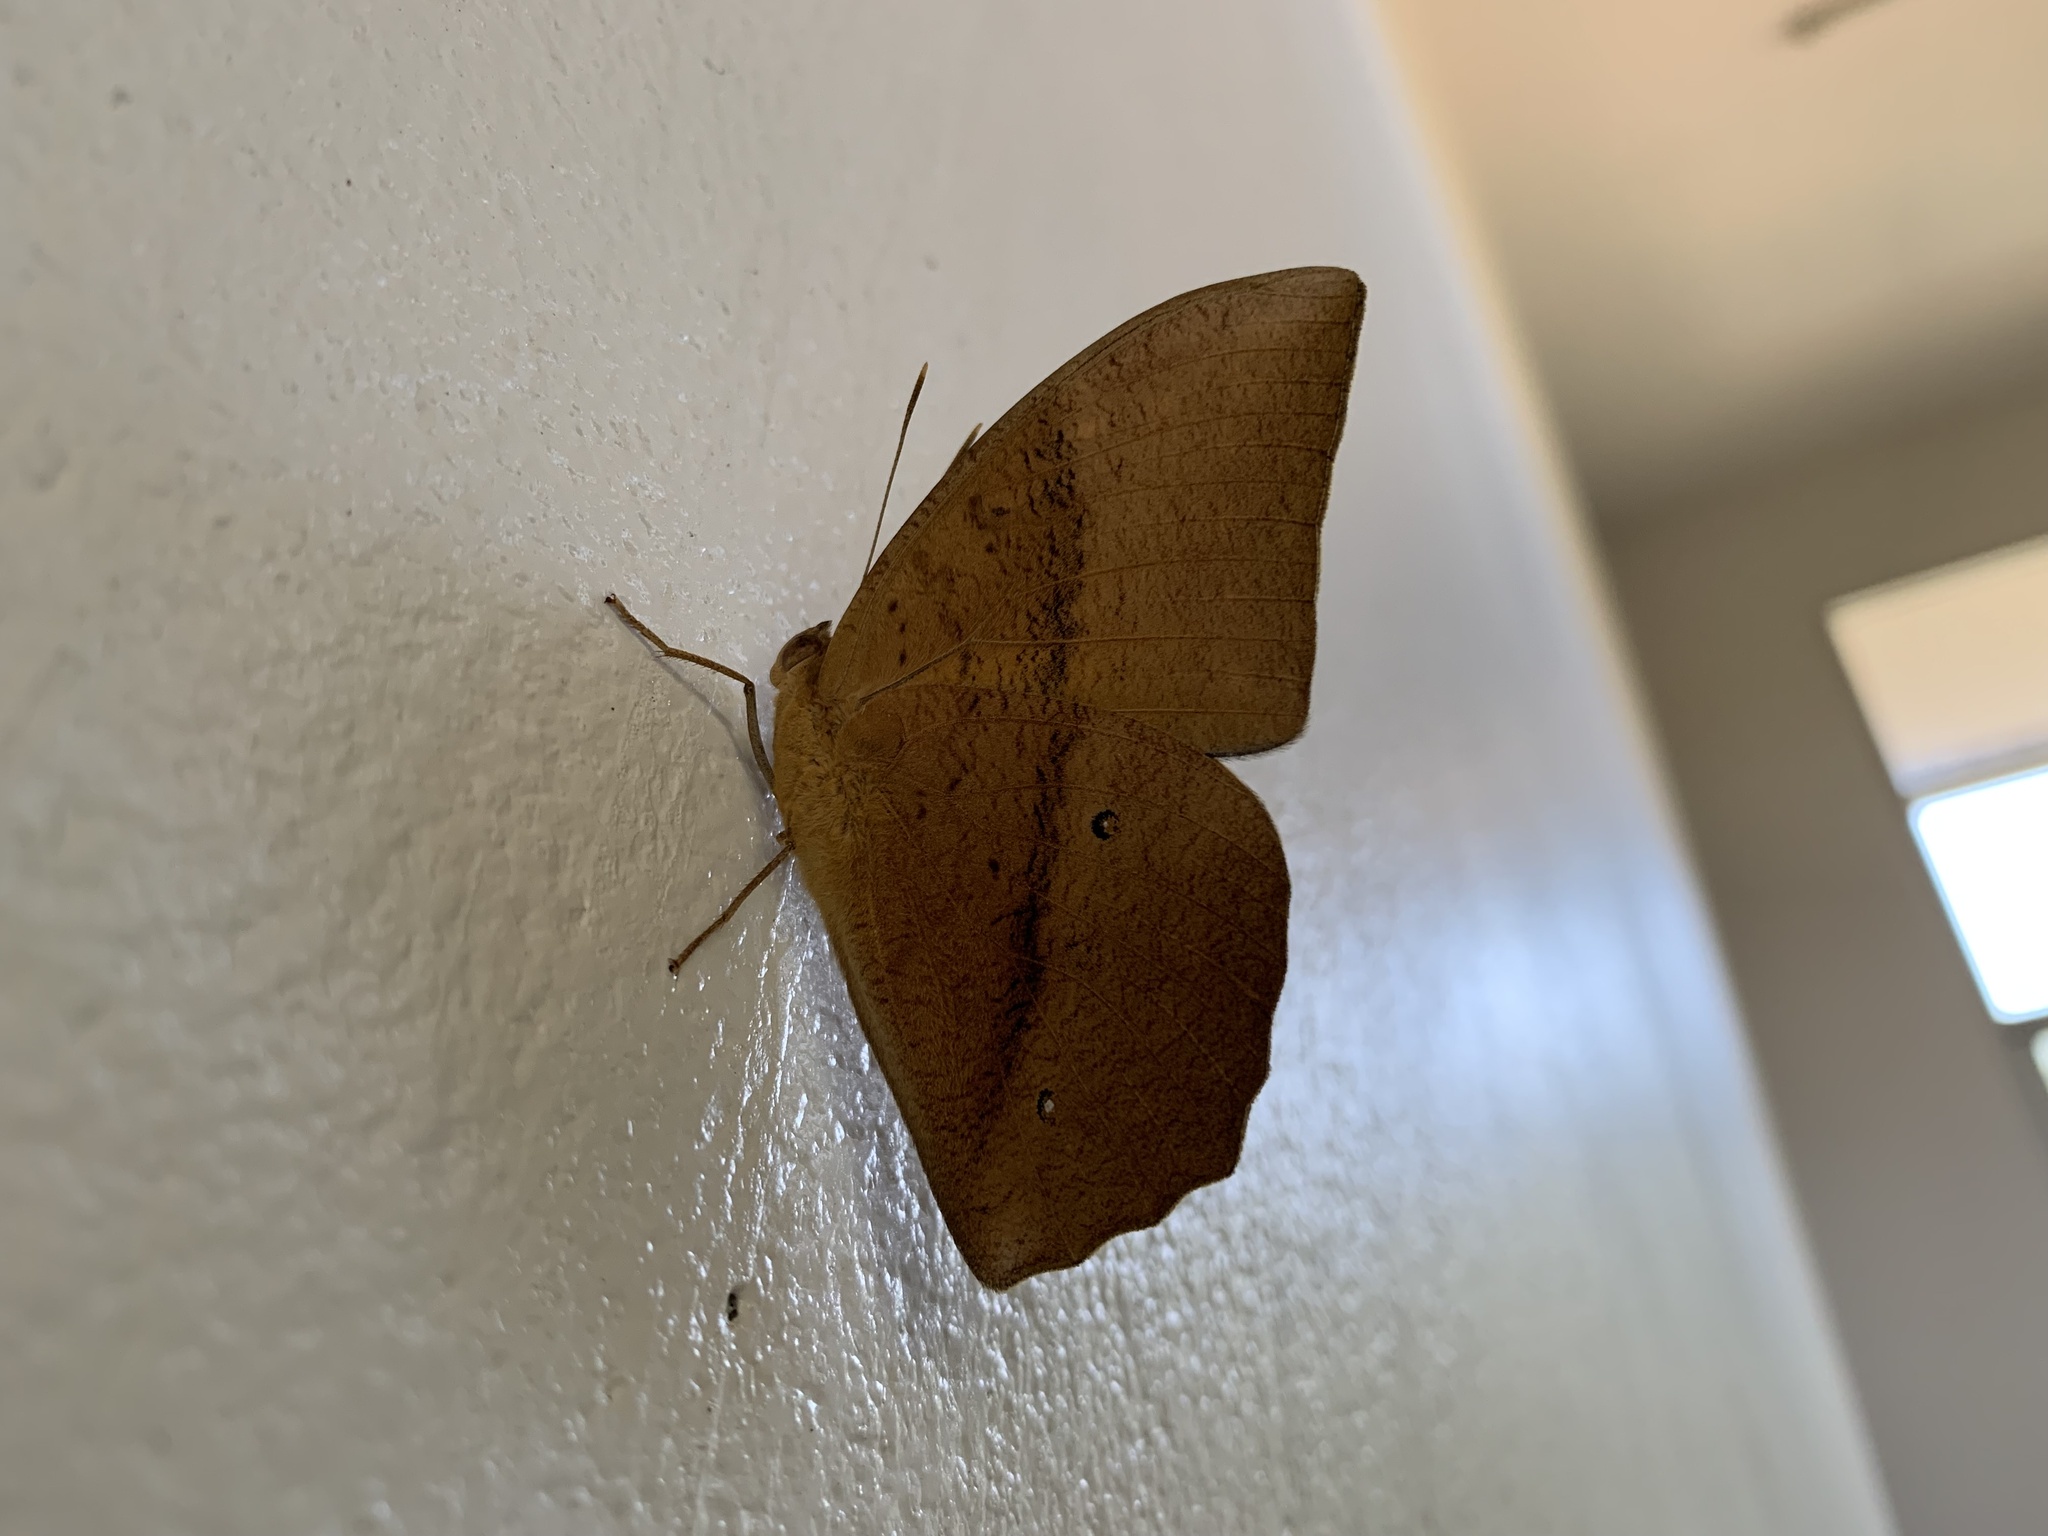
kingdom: Animalia
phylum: Arthropoda
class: Insecta
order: Lepidoptera
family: Nymphalidae
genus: Discophora
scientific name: Discophora sondaica
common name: Common duffer
